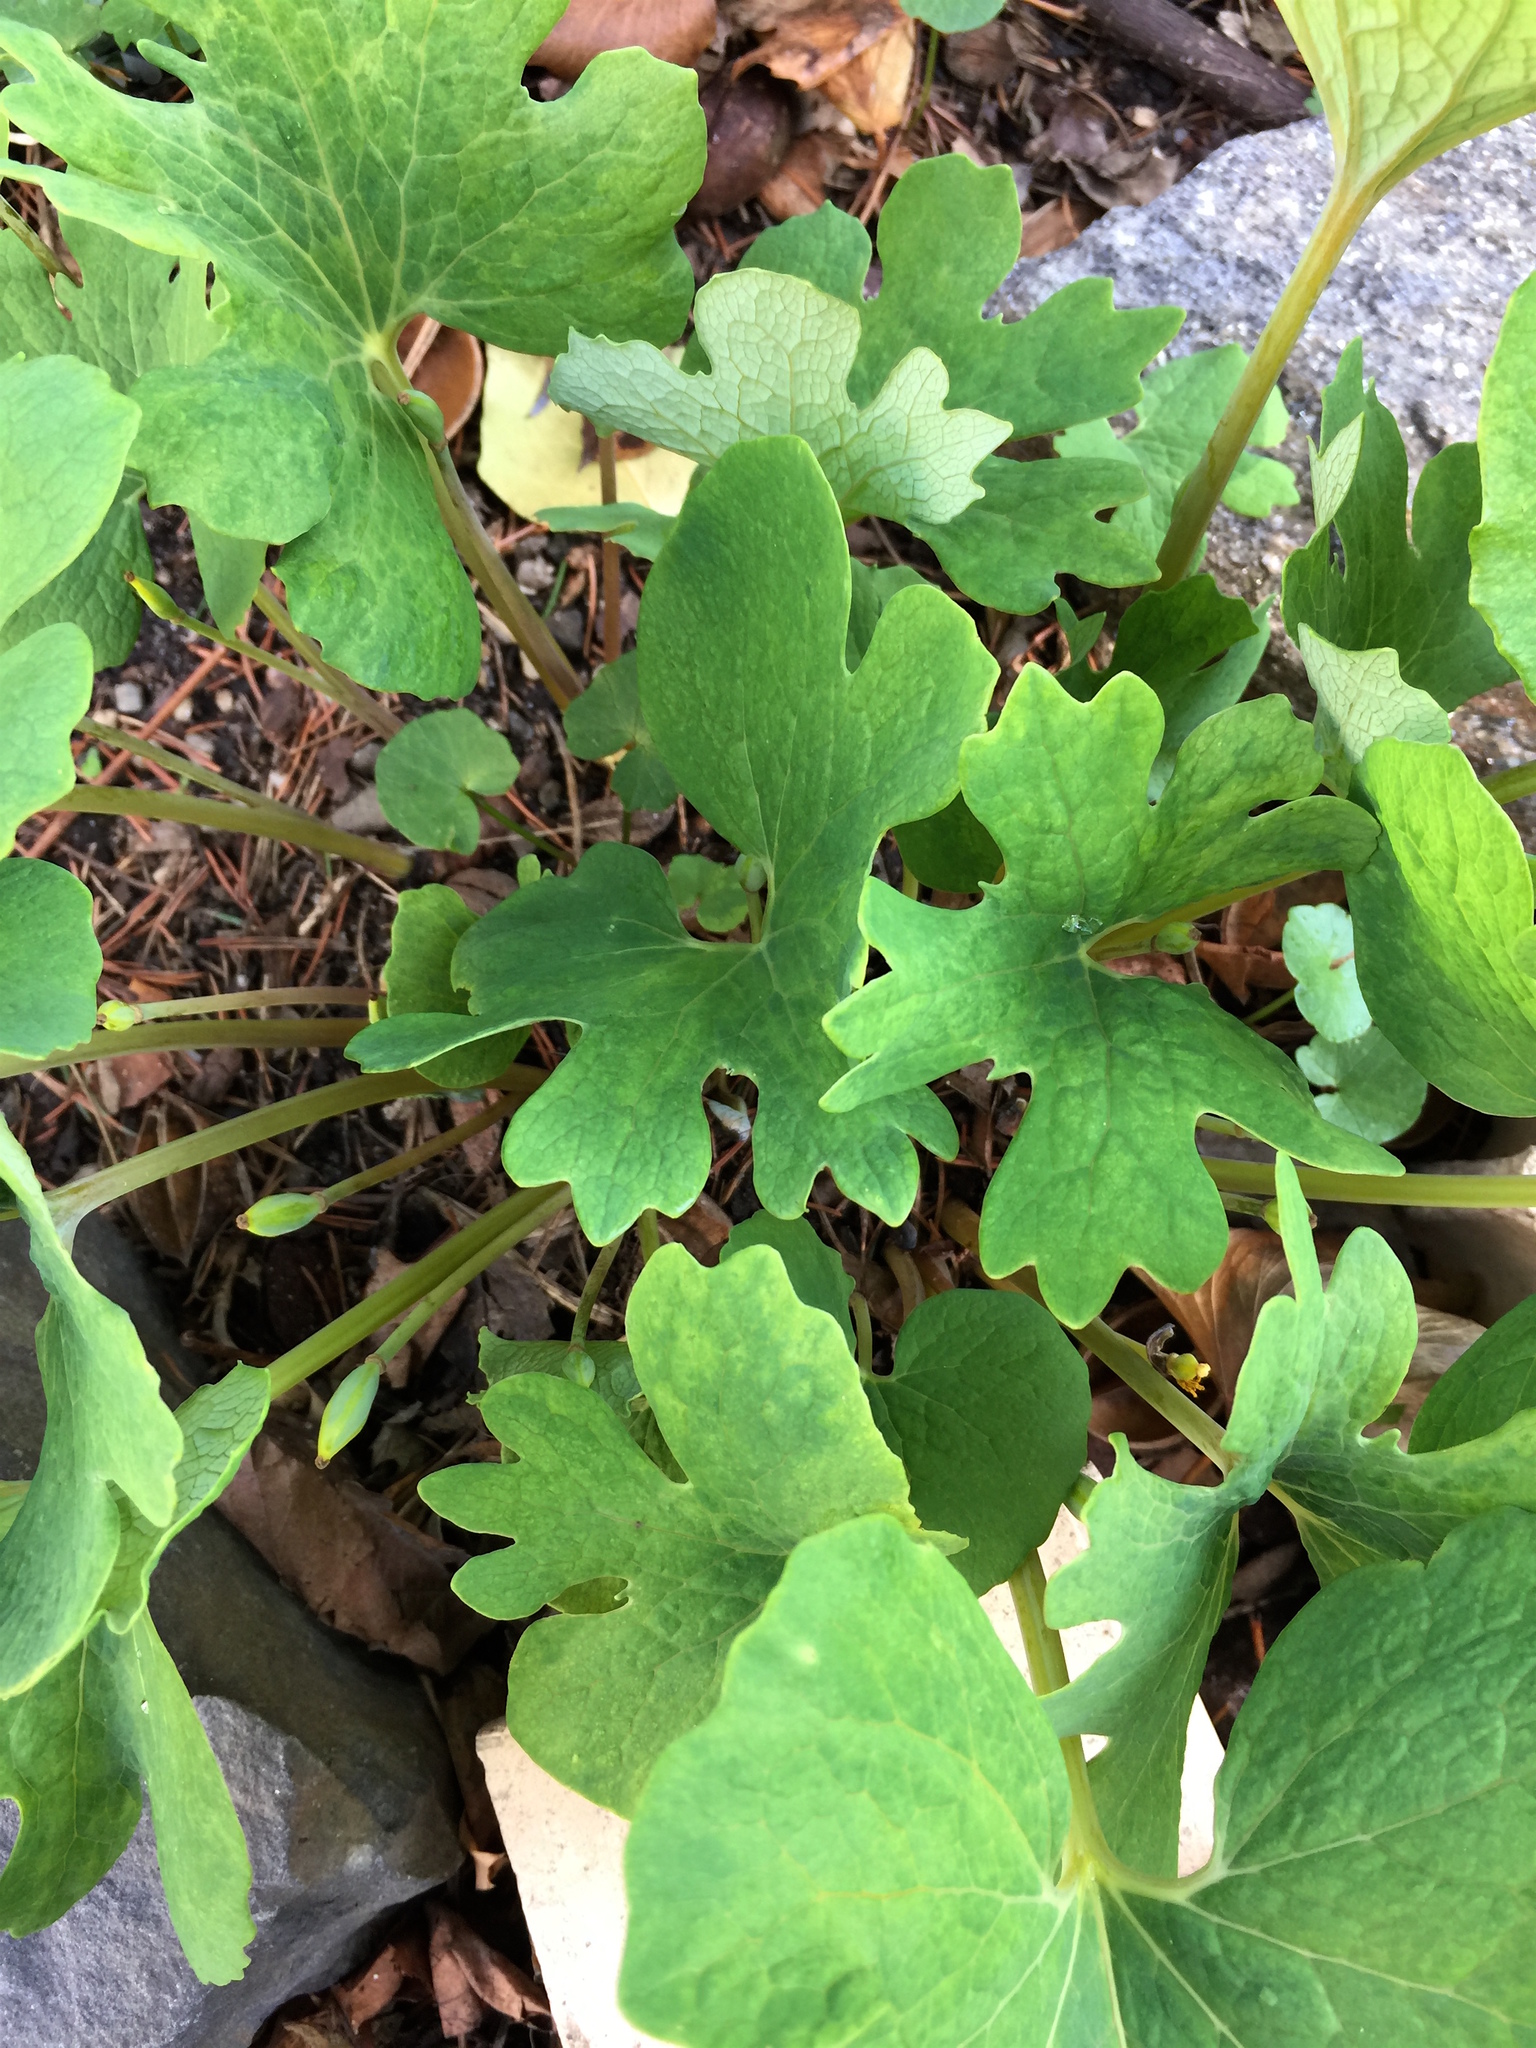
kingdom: Plantae
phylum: Tracheophyta
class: Magnoliopsida
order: Ranunculales
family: Papaveraceae
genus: Sanguinaria
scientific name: Sanguinaria canadensis
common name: Bloodroot
